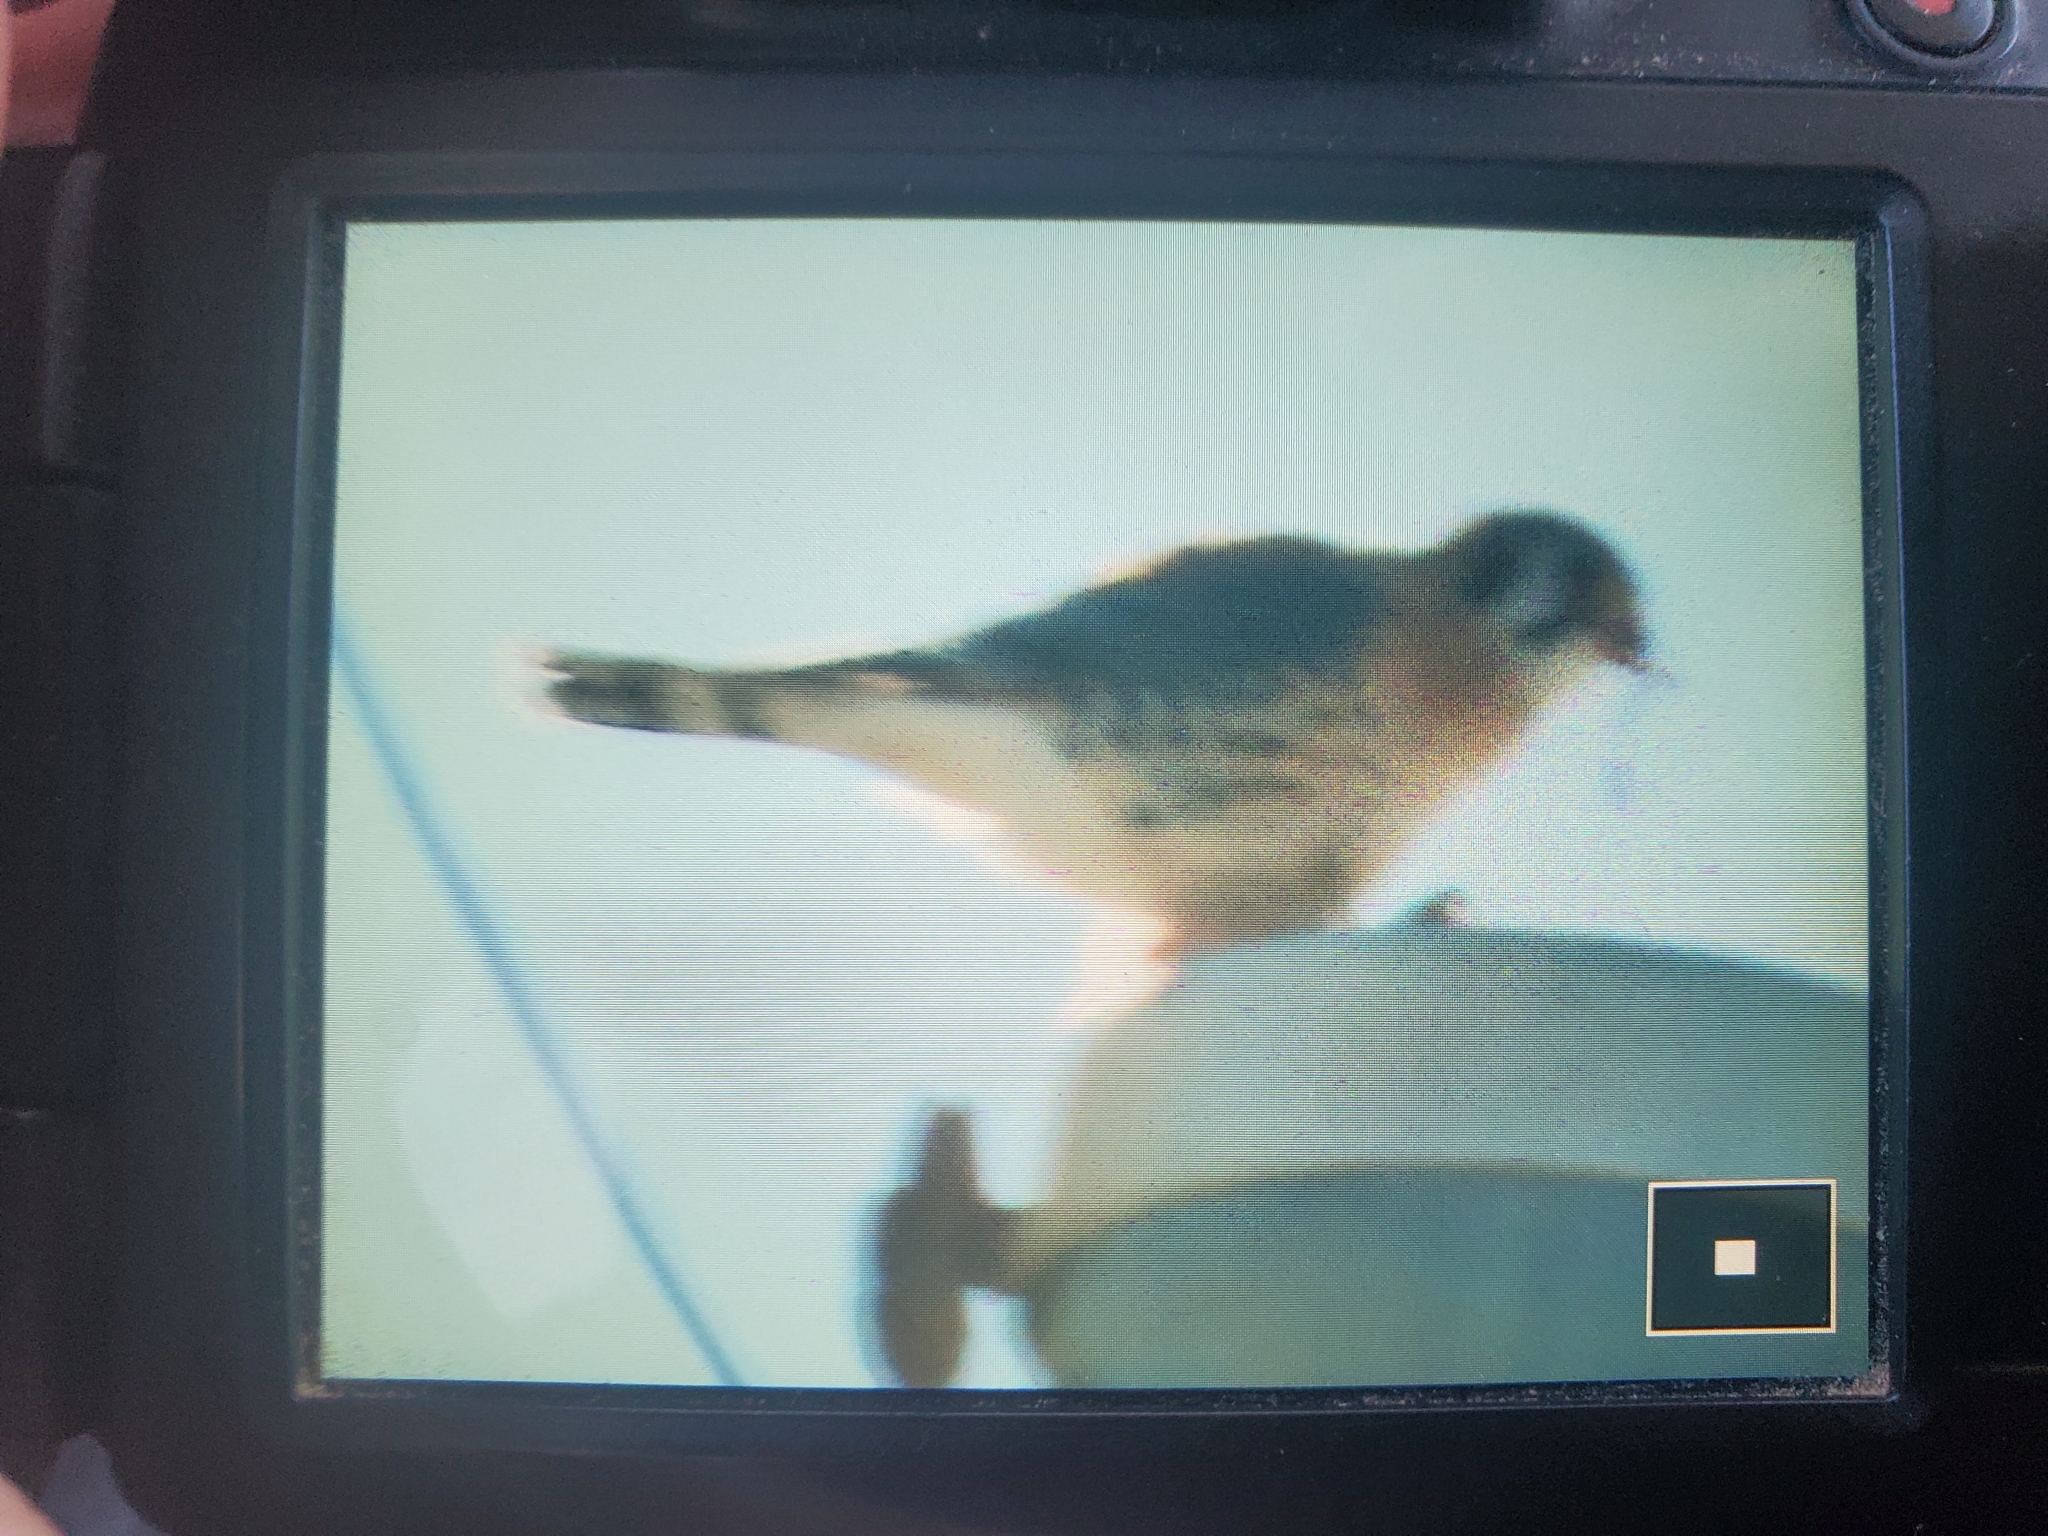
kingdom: Animalia
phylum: Chordata
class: Aves
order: Falconiformes
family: Falconidae
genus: Falco
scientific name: Falco sparverius
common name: American kestrel
